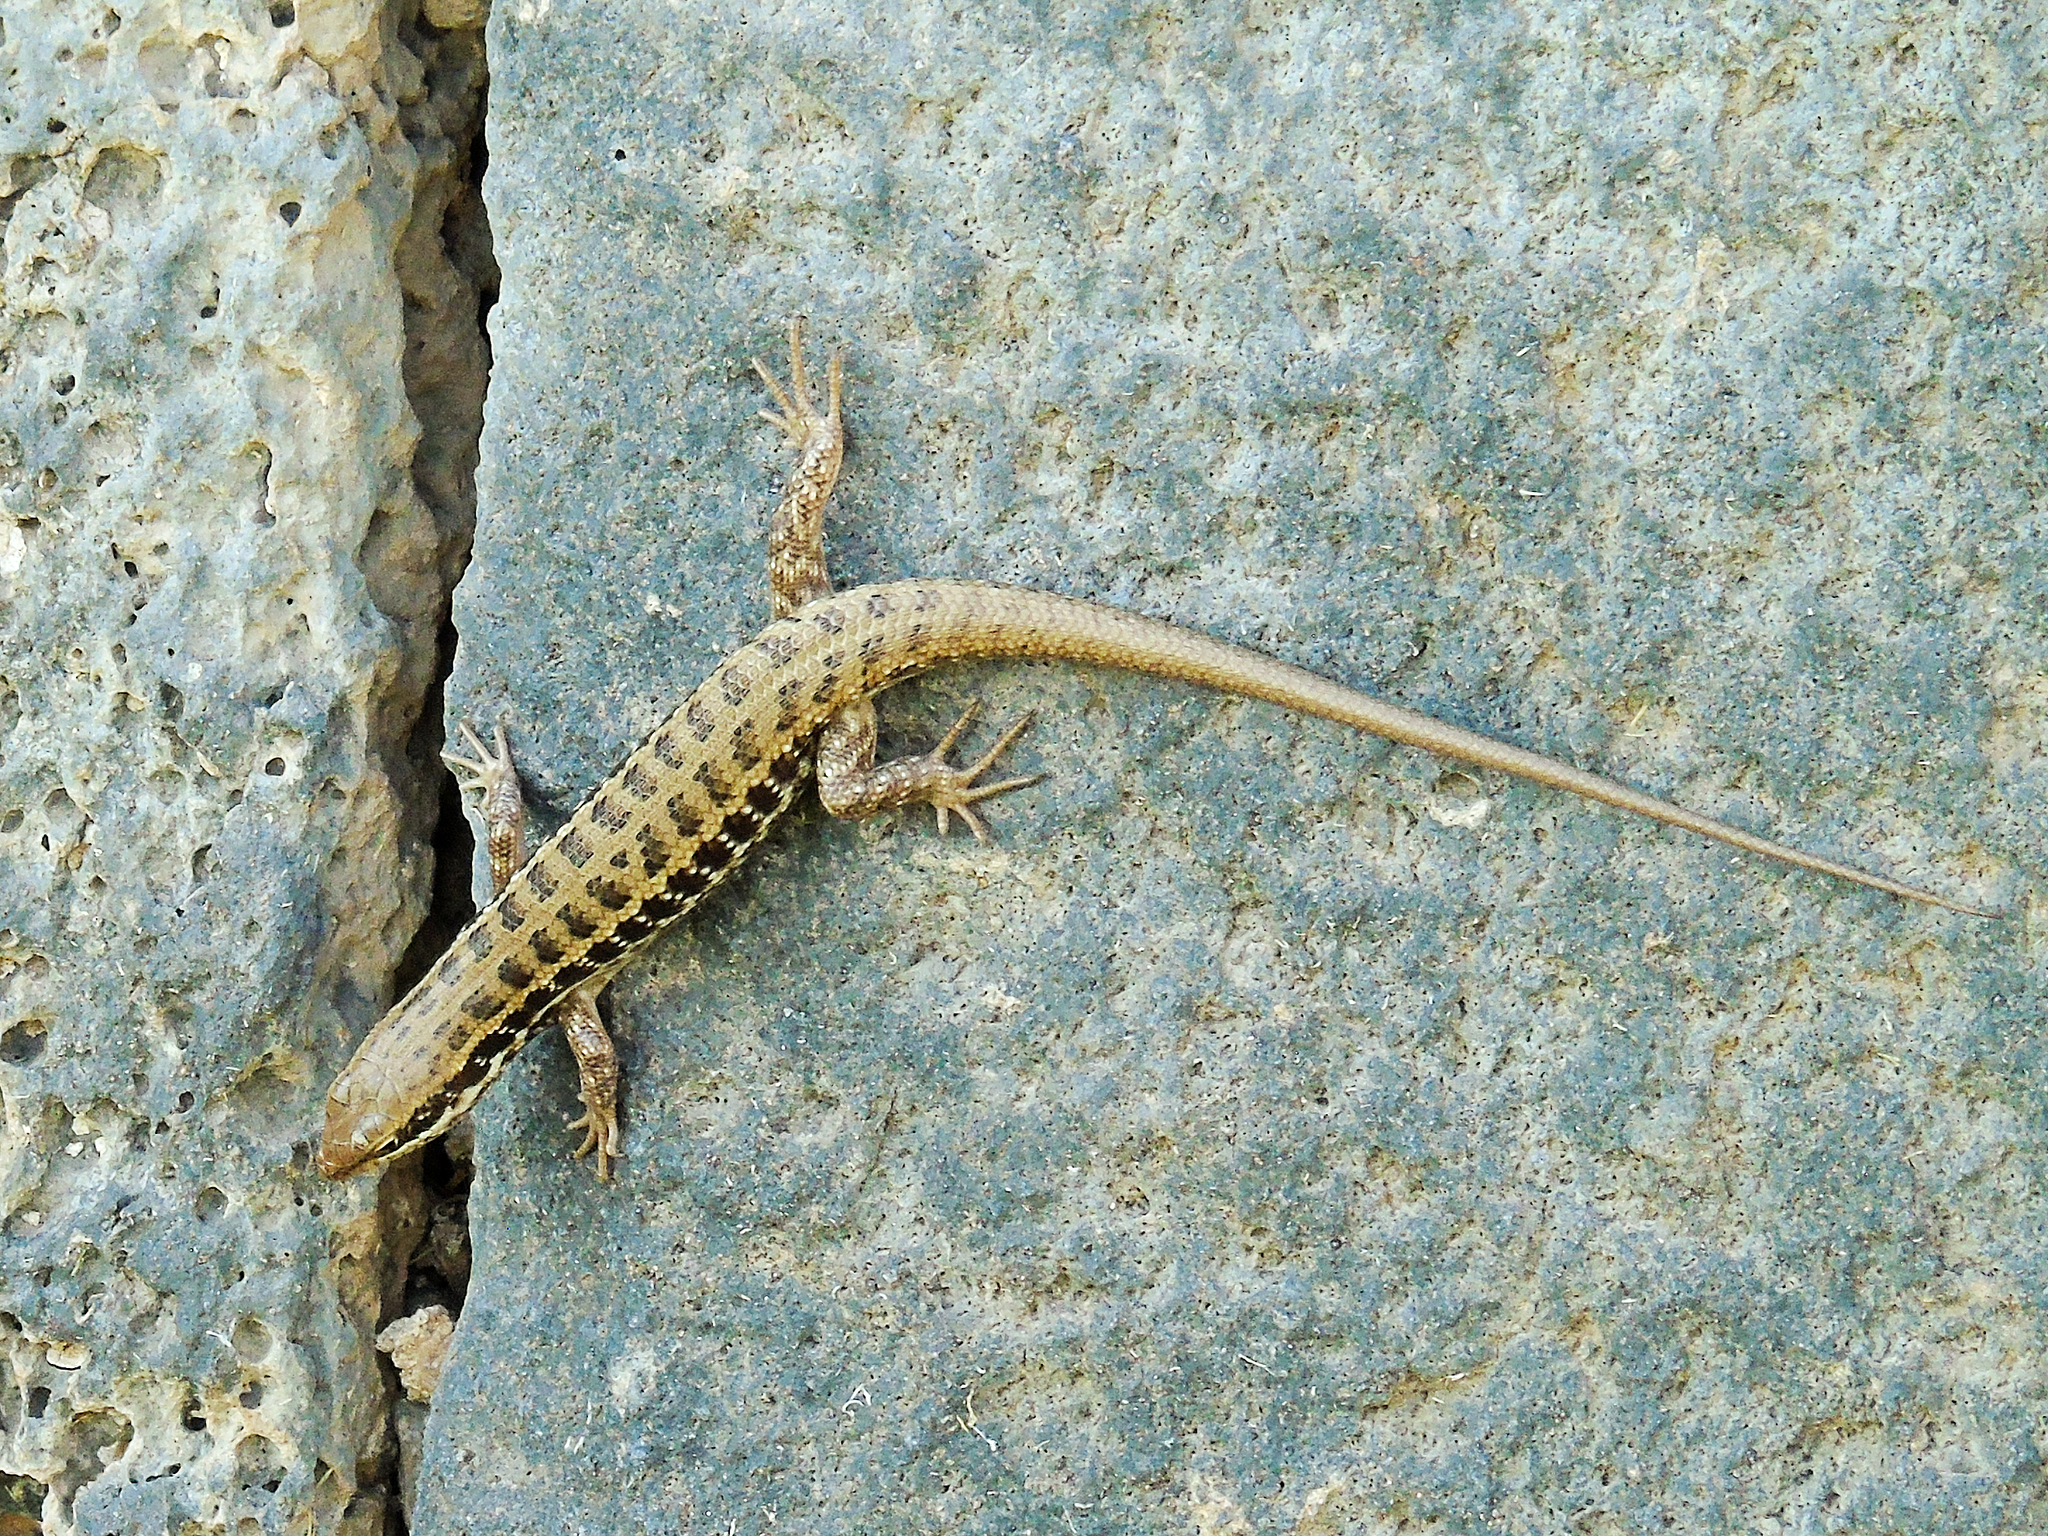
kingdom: Animalia
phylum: Chordata
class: Squamata
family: Scincidae
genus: Heremites
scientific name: Heremites auratus
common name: Golden grass mabuya
